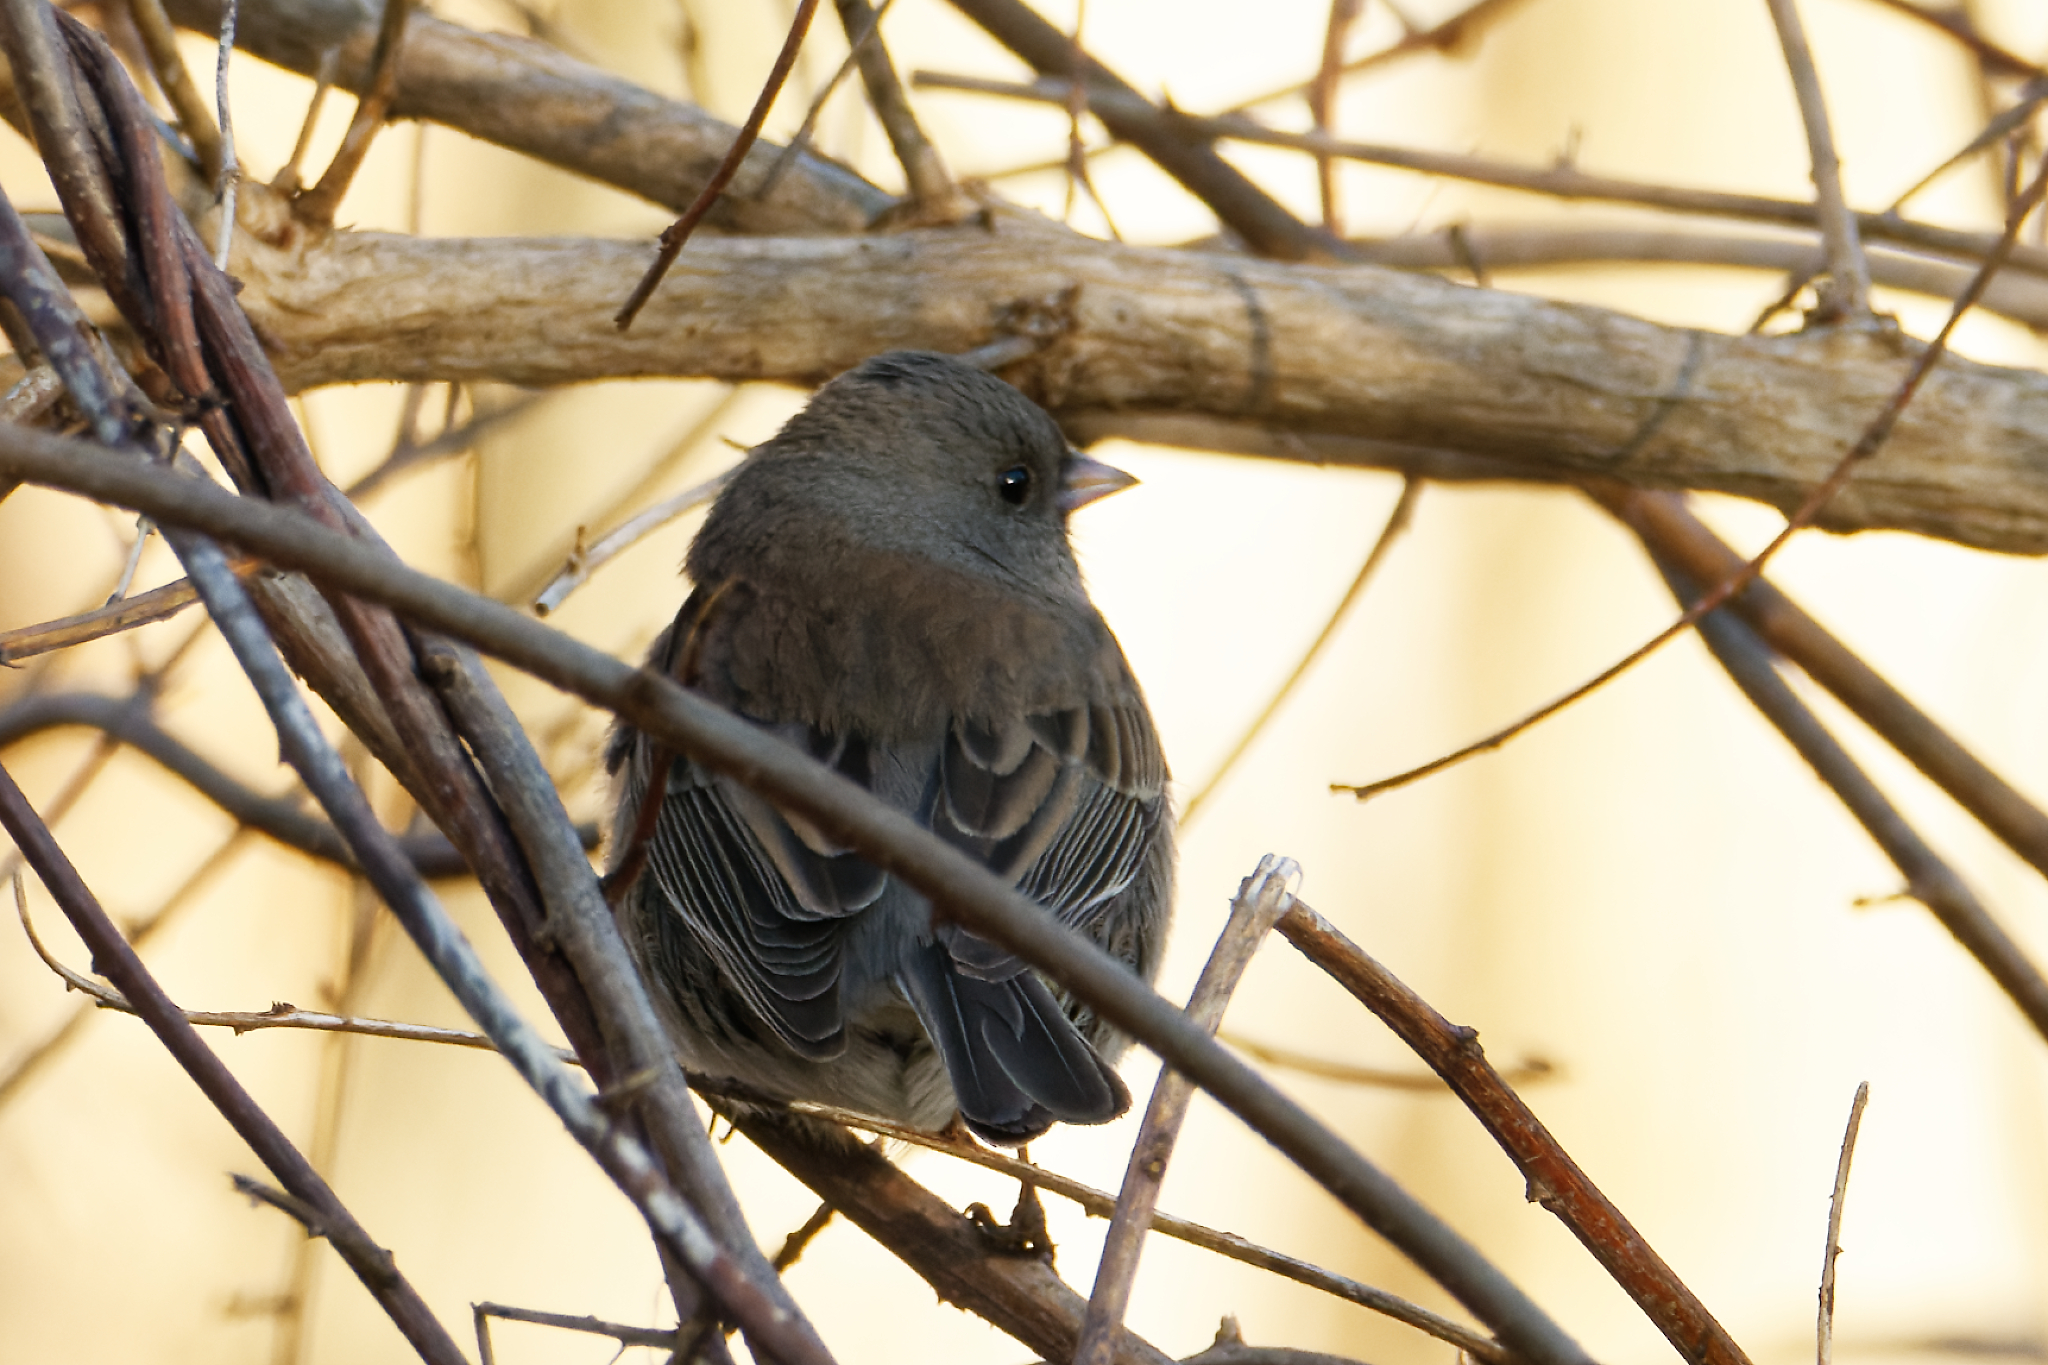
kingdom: Animalia
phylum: Chordata
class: Aves
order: Passeriformes
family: Passerellidae
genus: Junco
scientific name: Junco hyemalis
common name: Dark-eyed junco
